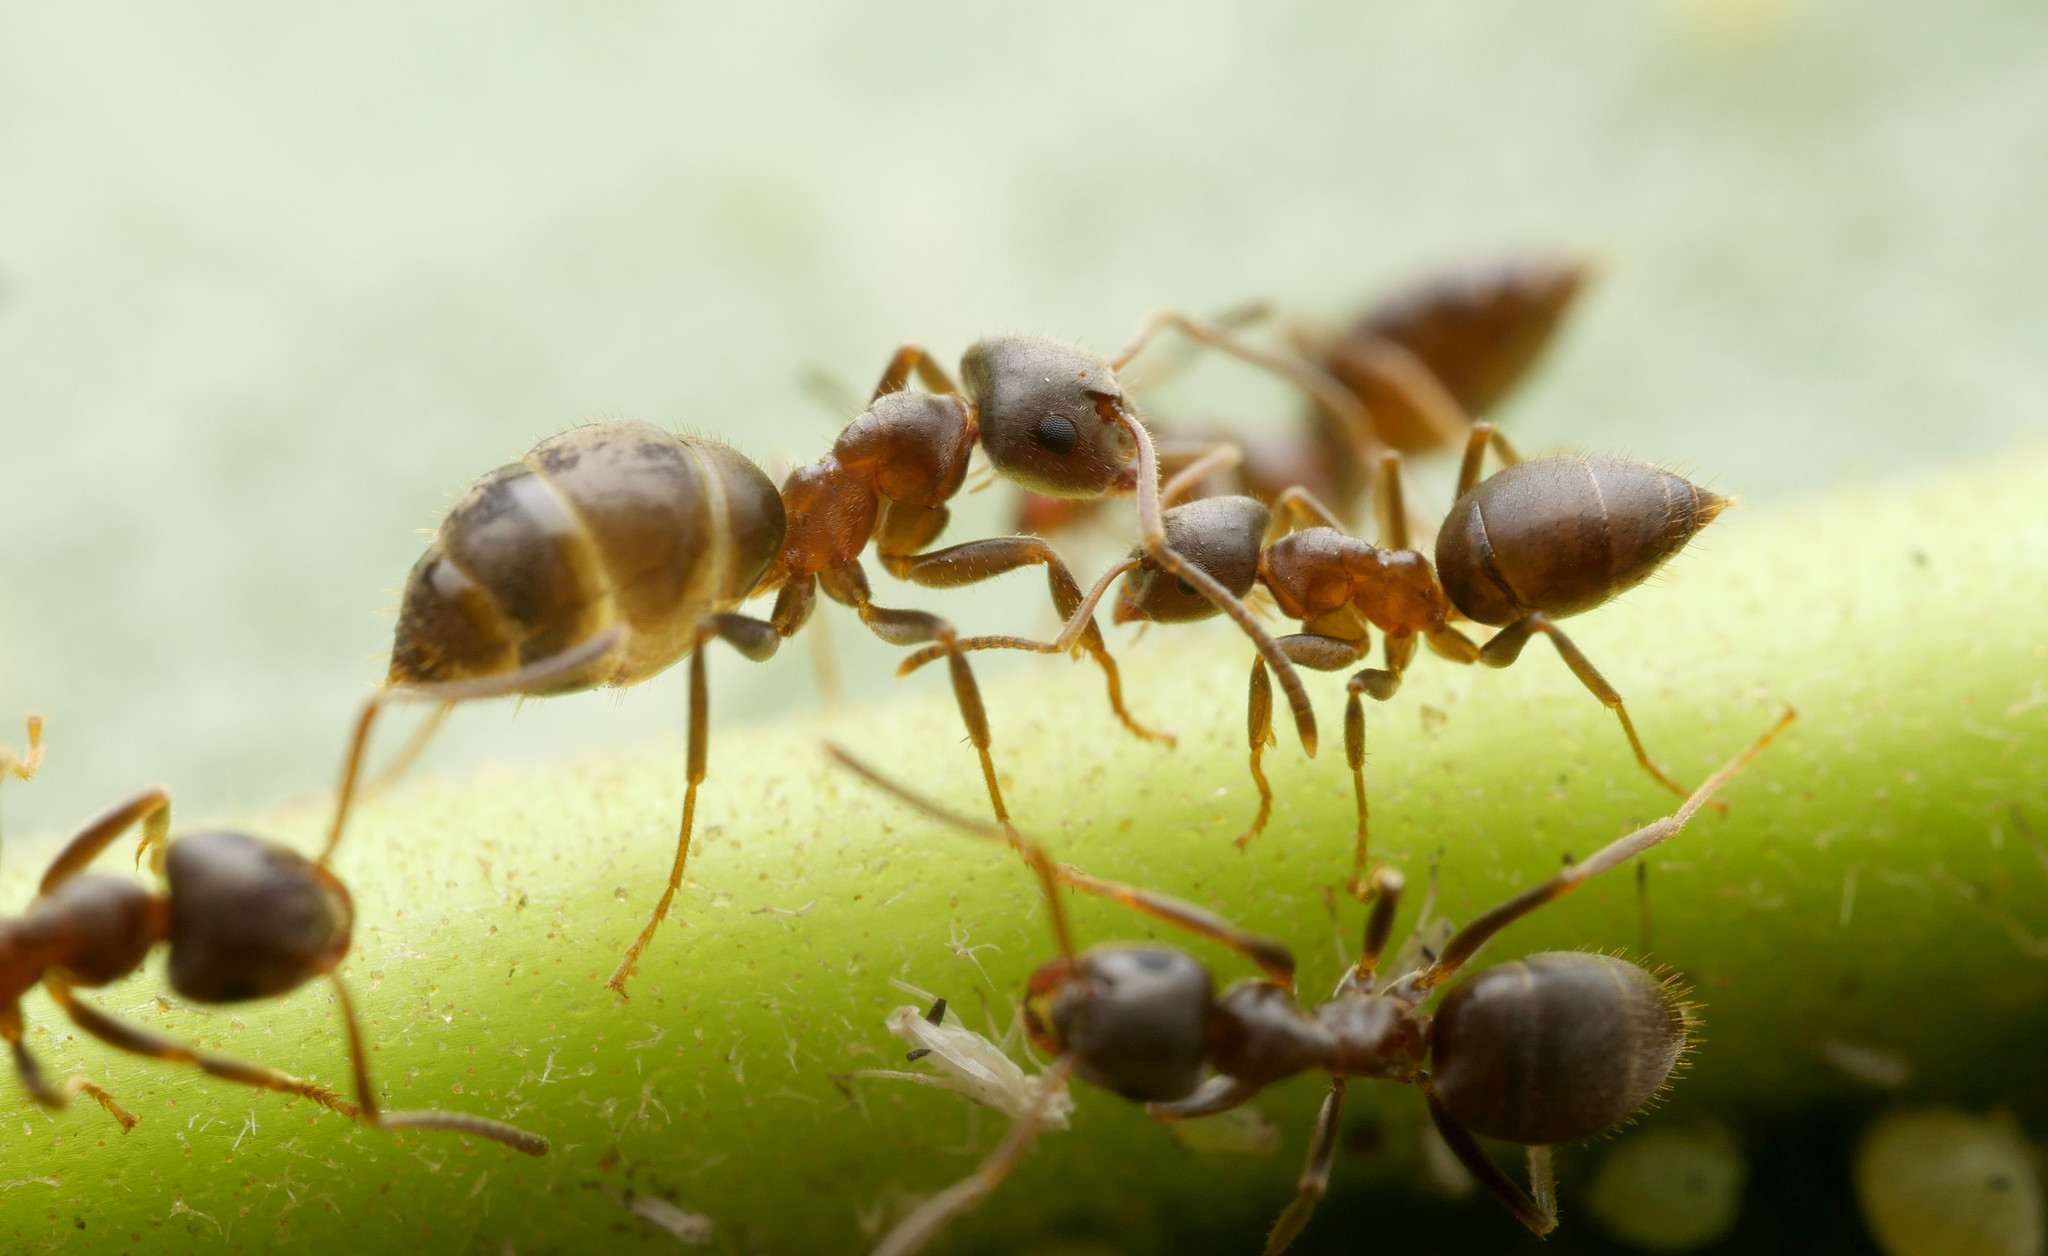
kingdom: Animalia
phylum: Arthropoda
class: Insecta
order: Hymenoptera
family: Formicidae
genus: Lasius
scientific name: Lasius niger
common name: Small black ant
